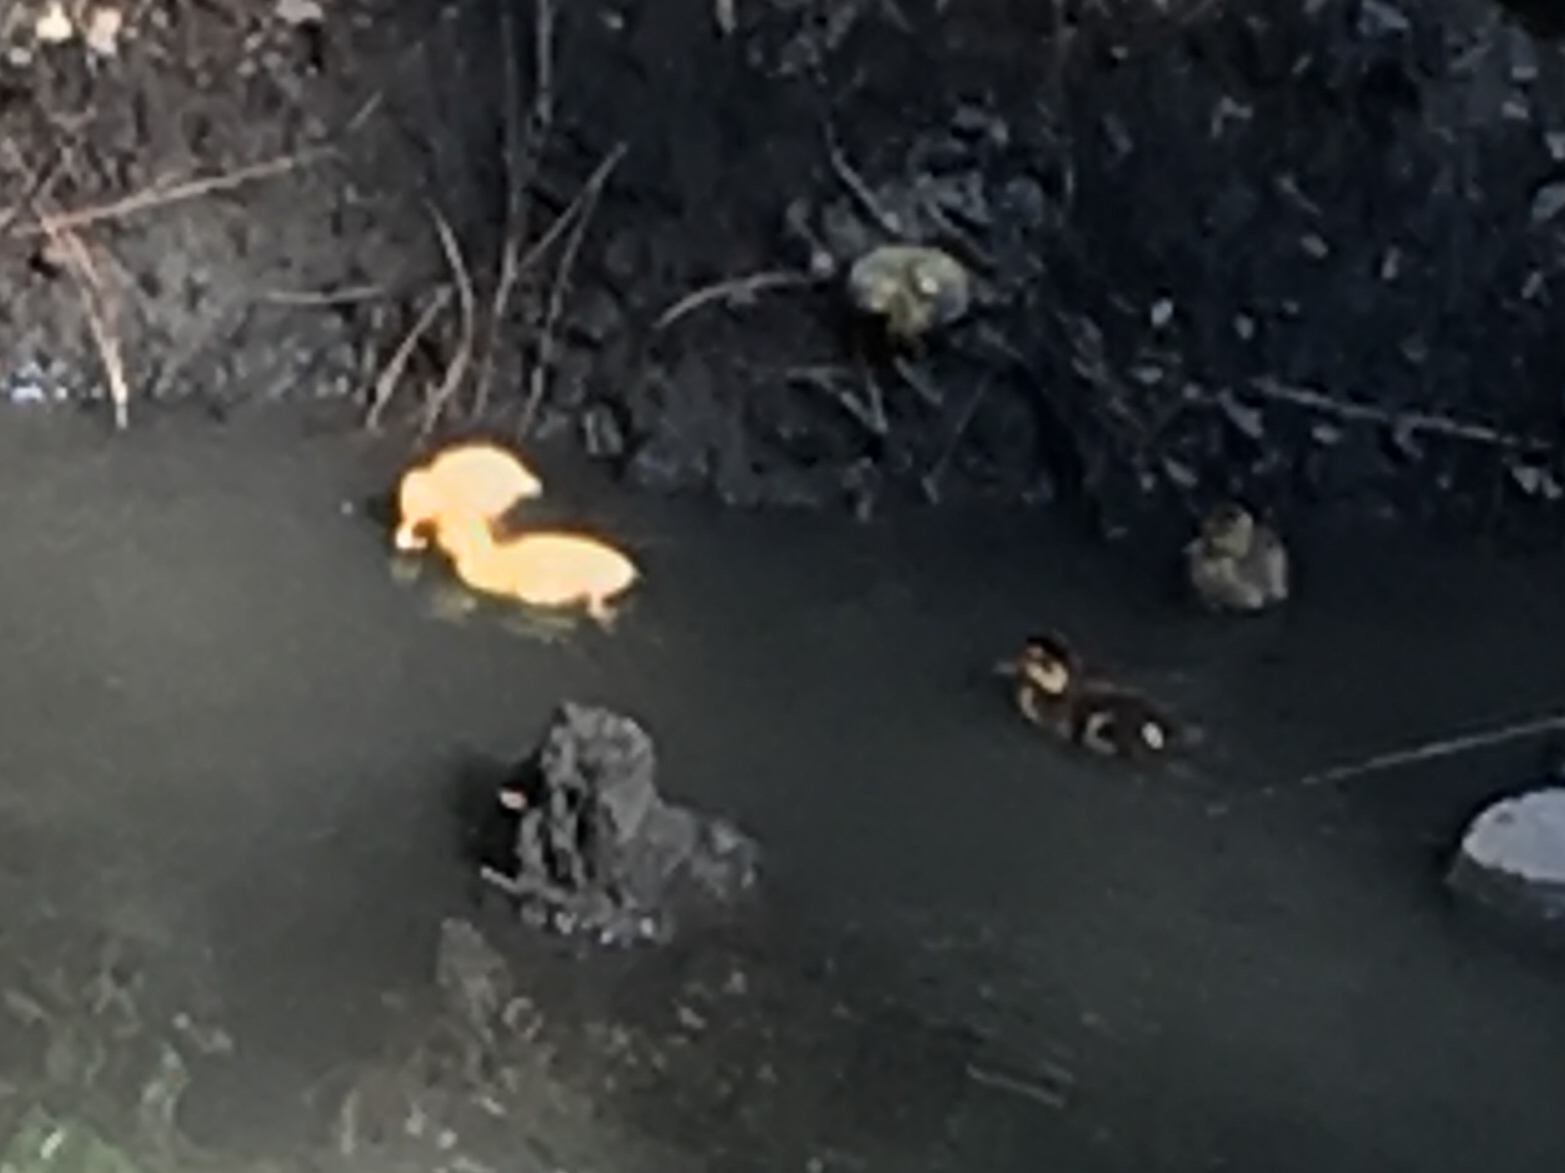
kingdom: Animalia
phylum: Chordata
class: Aves
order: Anseriformes
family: Anatidae
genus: Anas
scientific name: Anas platyrhynchos
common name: Mallard
